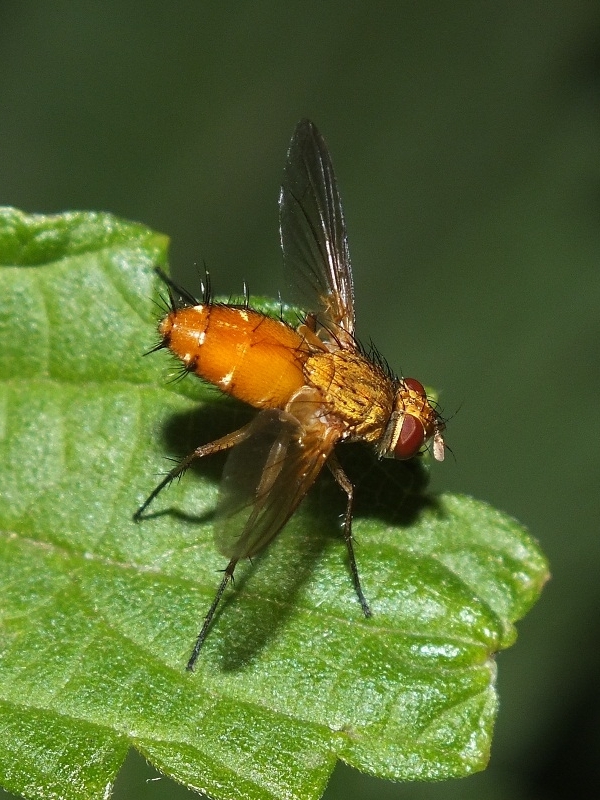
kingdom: Animalia
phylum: Arthropoda
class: Insecta
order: Diptera
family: Tachinidae
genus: Leskia
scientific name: Leskia aurea
